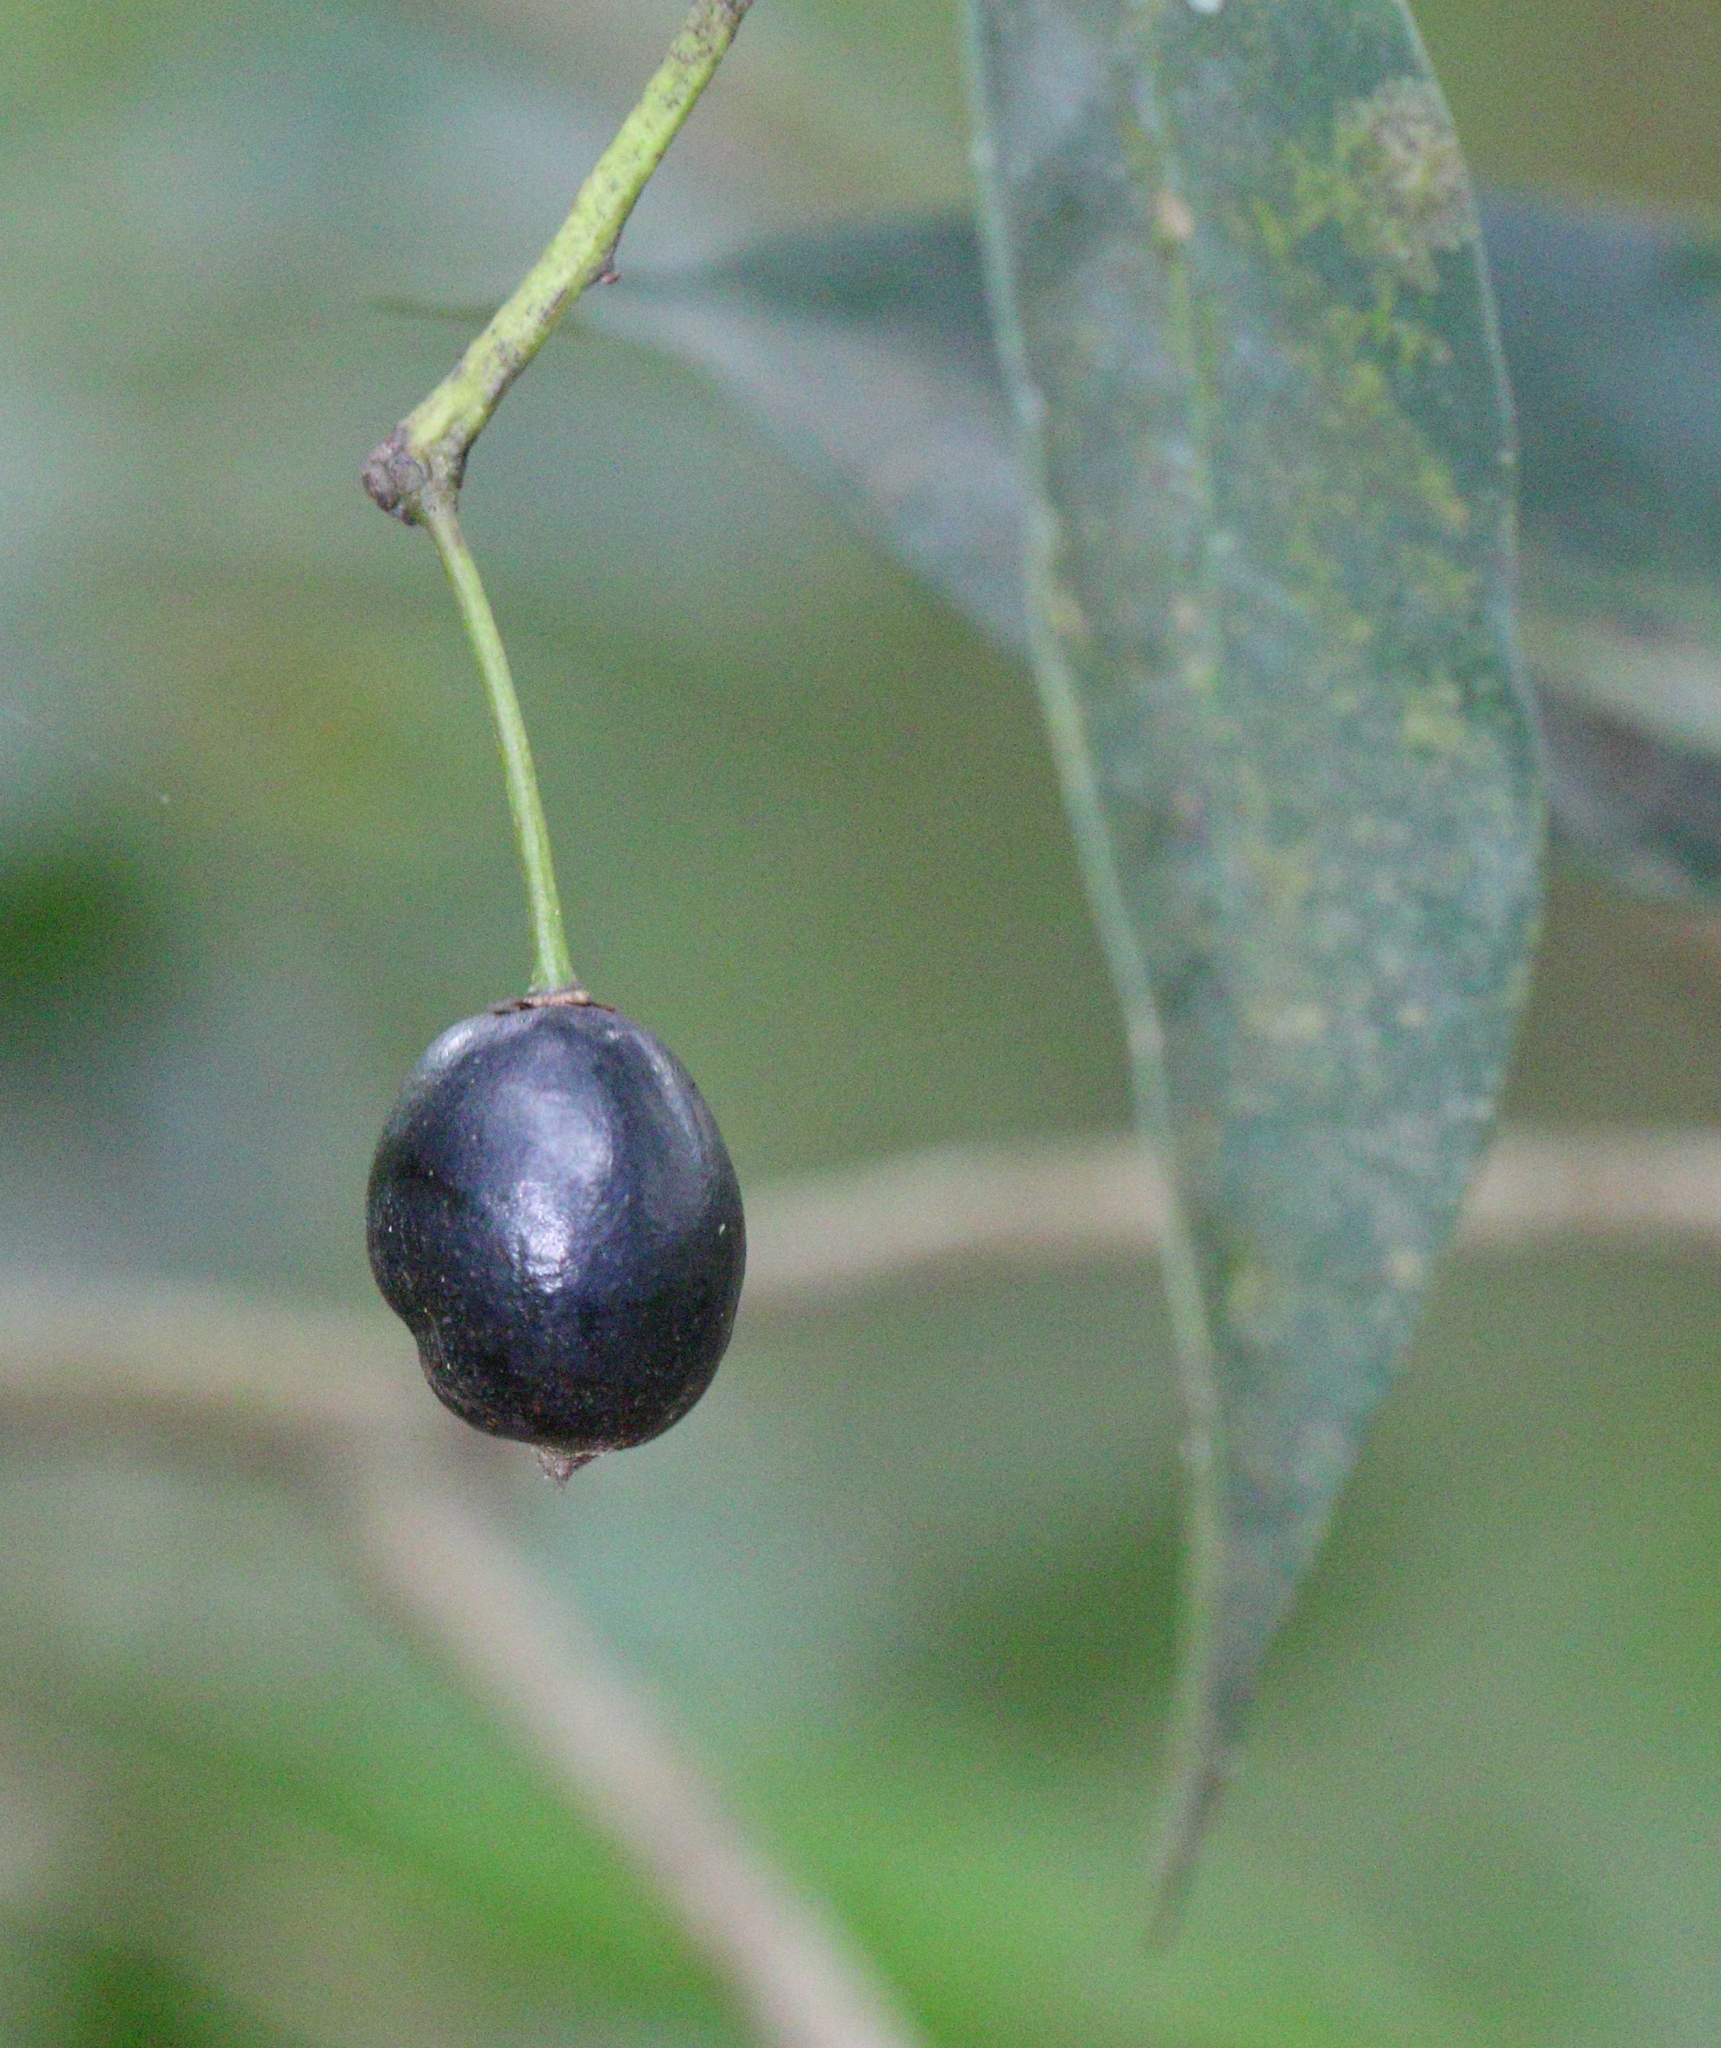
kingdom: Plantae
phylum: Tracheophyta
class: Magnoliopsida
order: Malvales
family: Thymelaeaceae
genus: Peddiea
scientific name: Peddiea africana
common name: Poison olive
